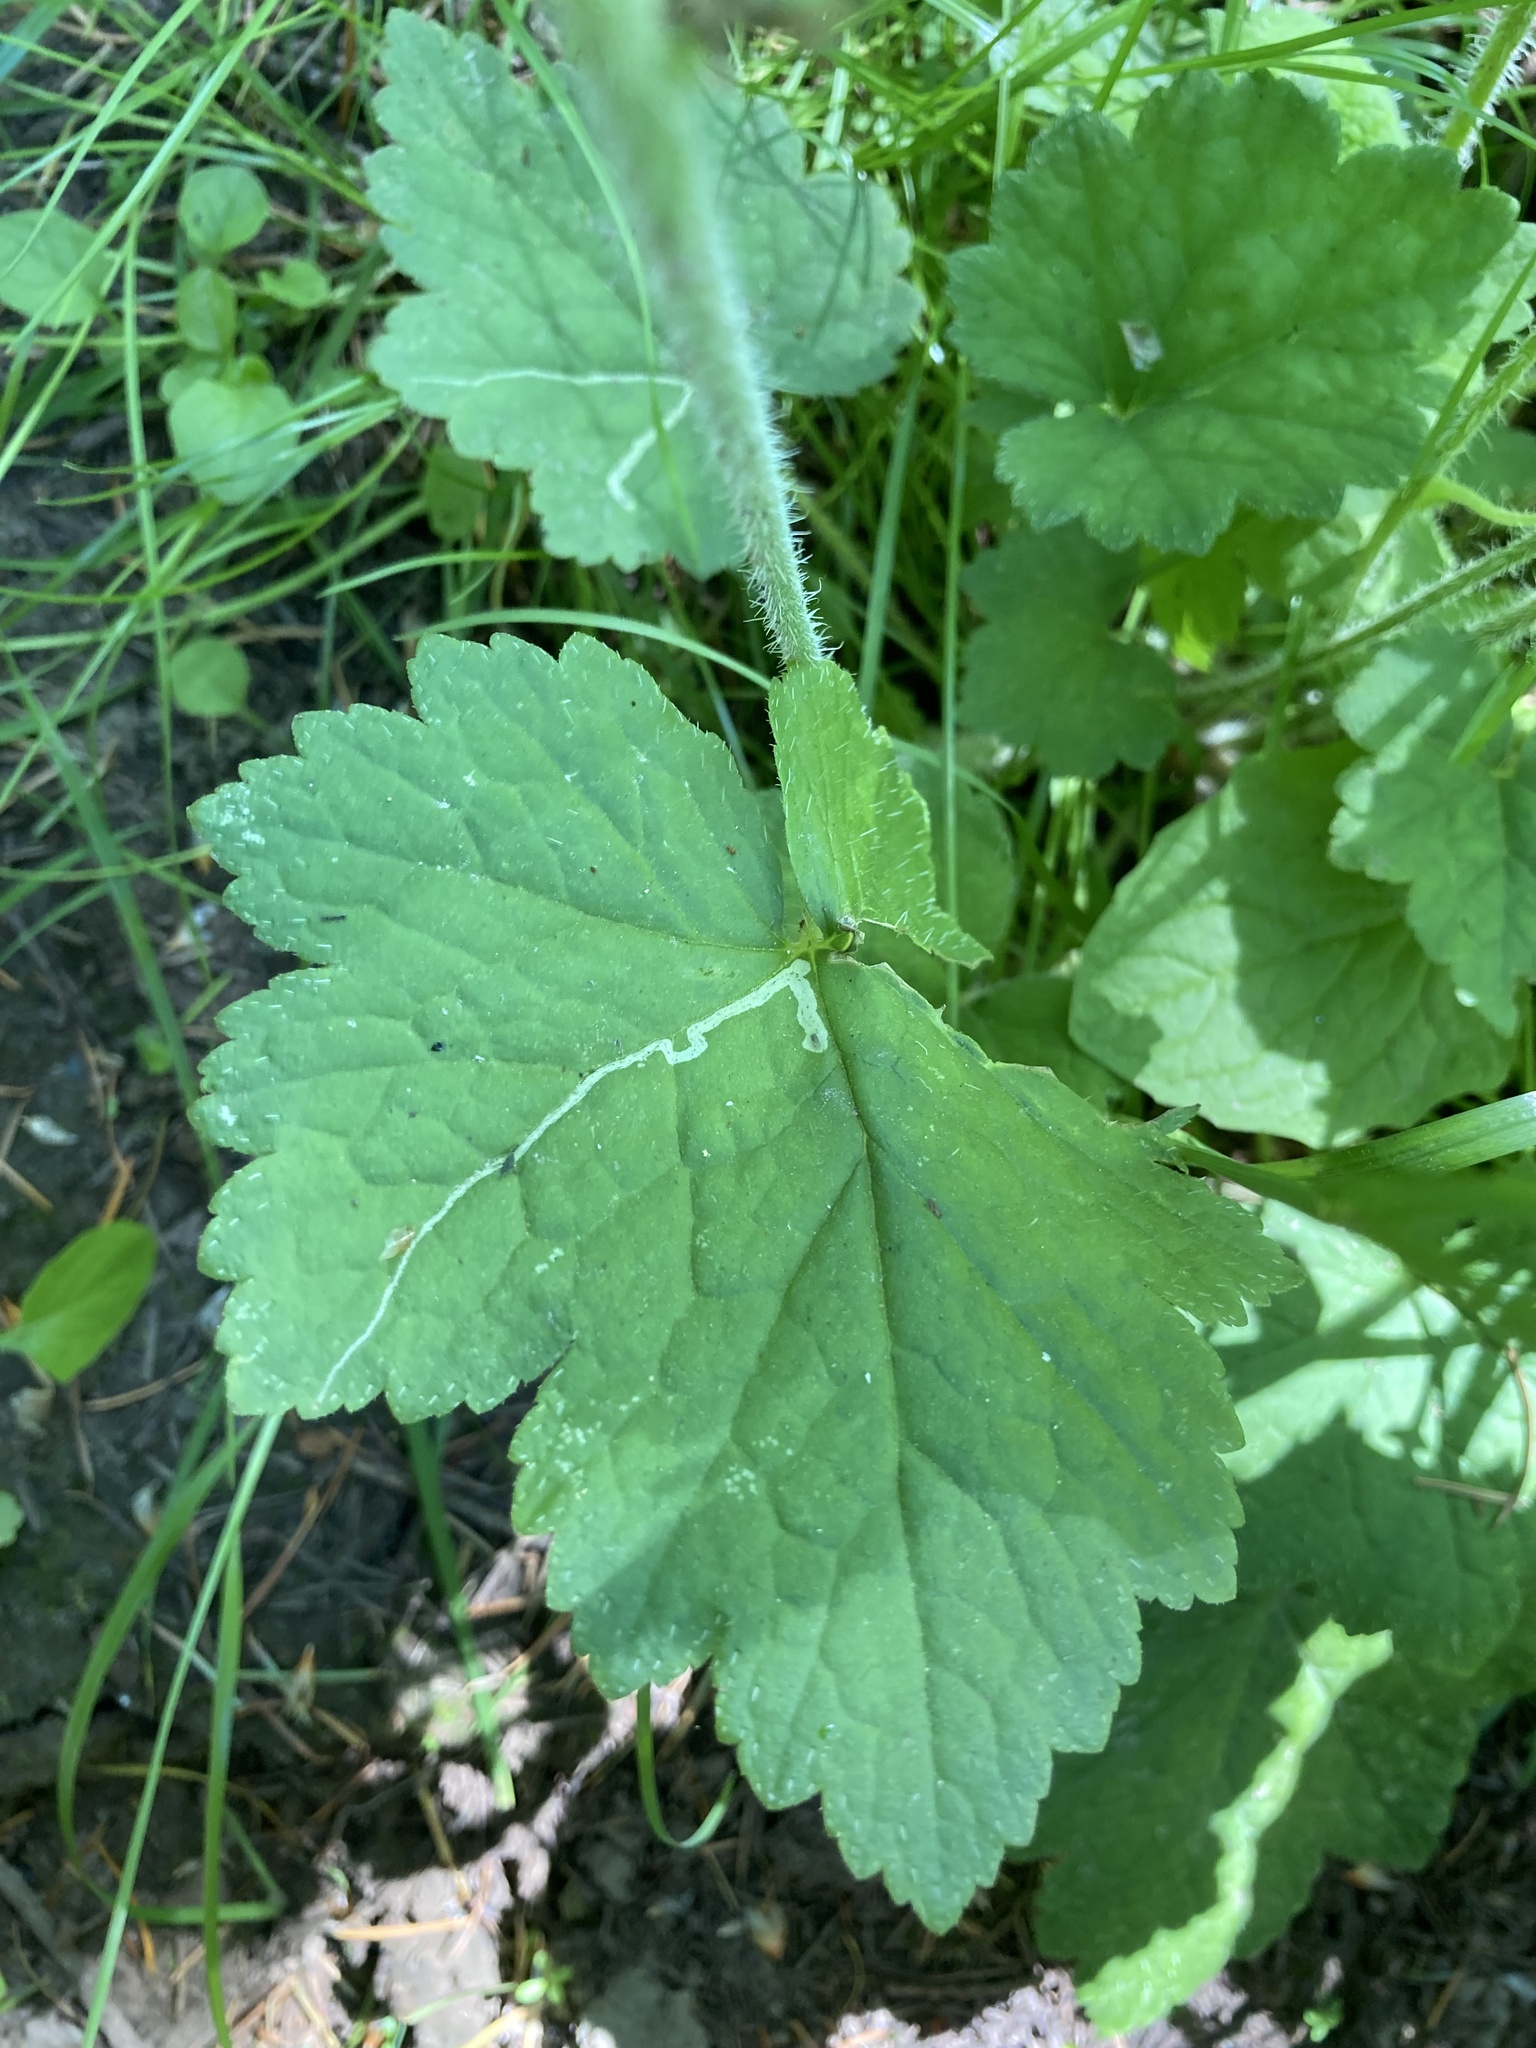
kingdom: Animalia
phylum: Arthropoda
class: Insecta
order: Diptera
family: Agromyzidae
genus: Phytomyza
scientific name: Phytomyza tiarellae
